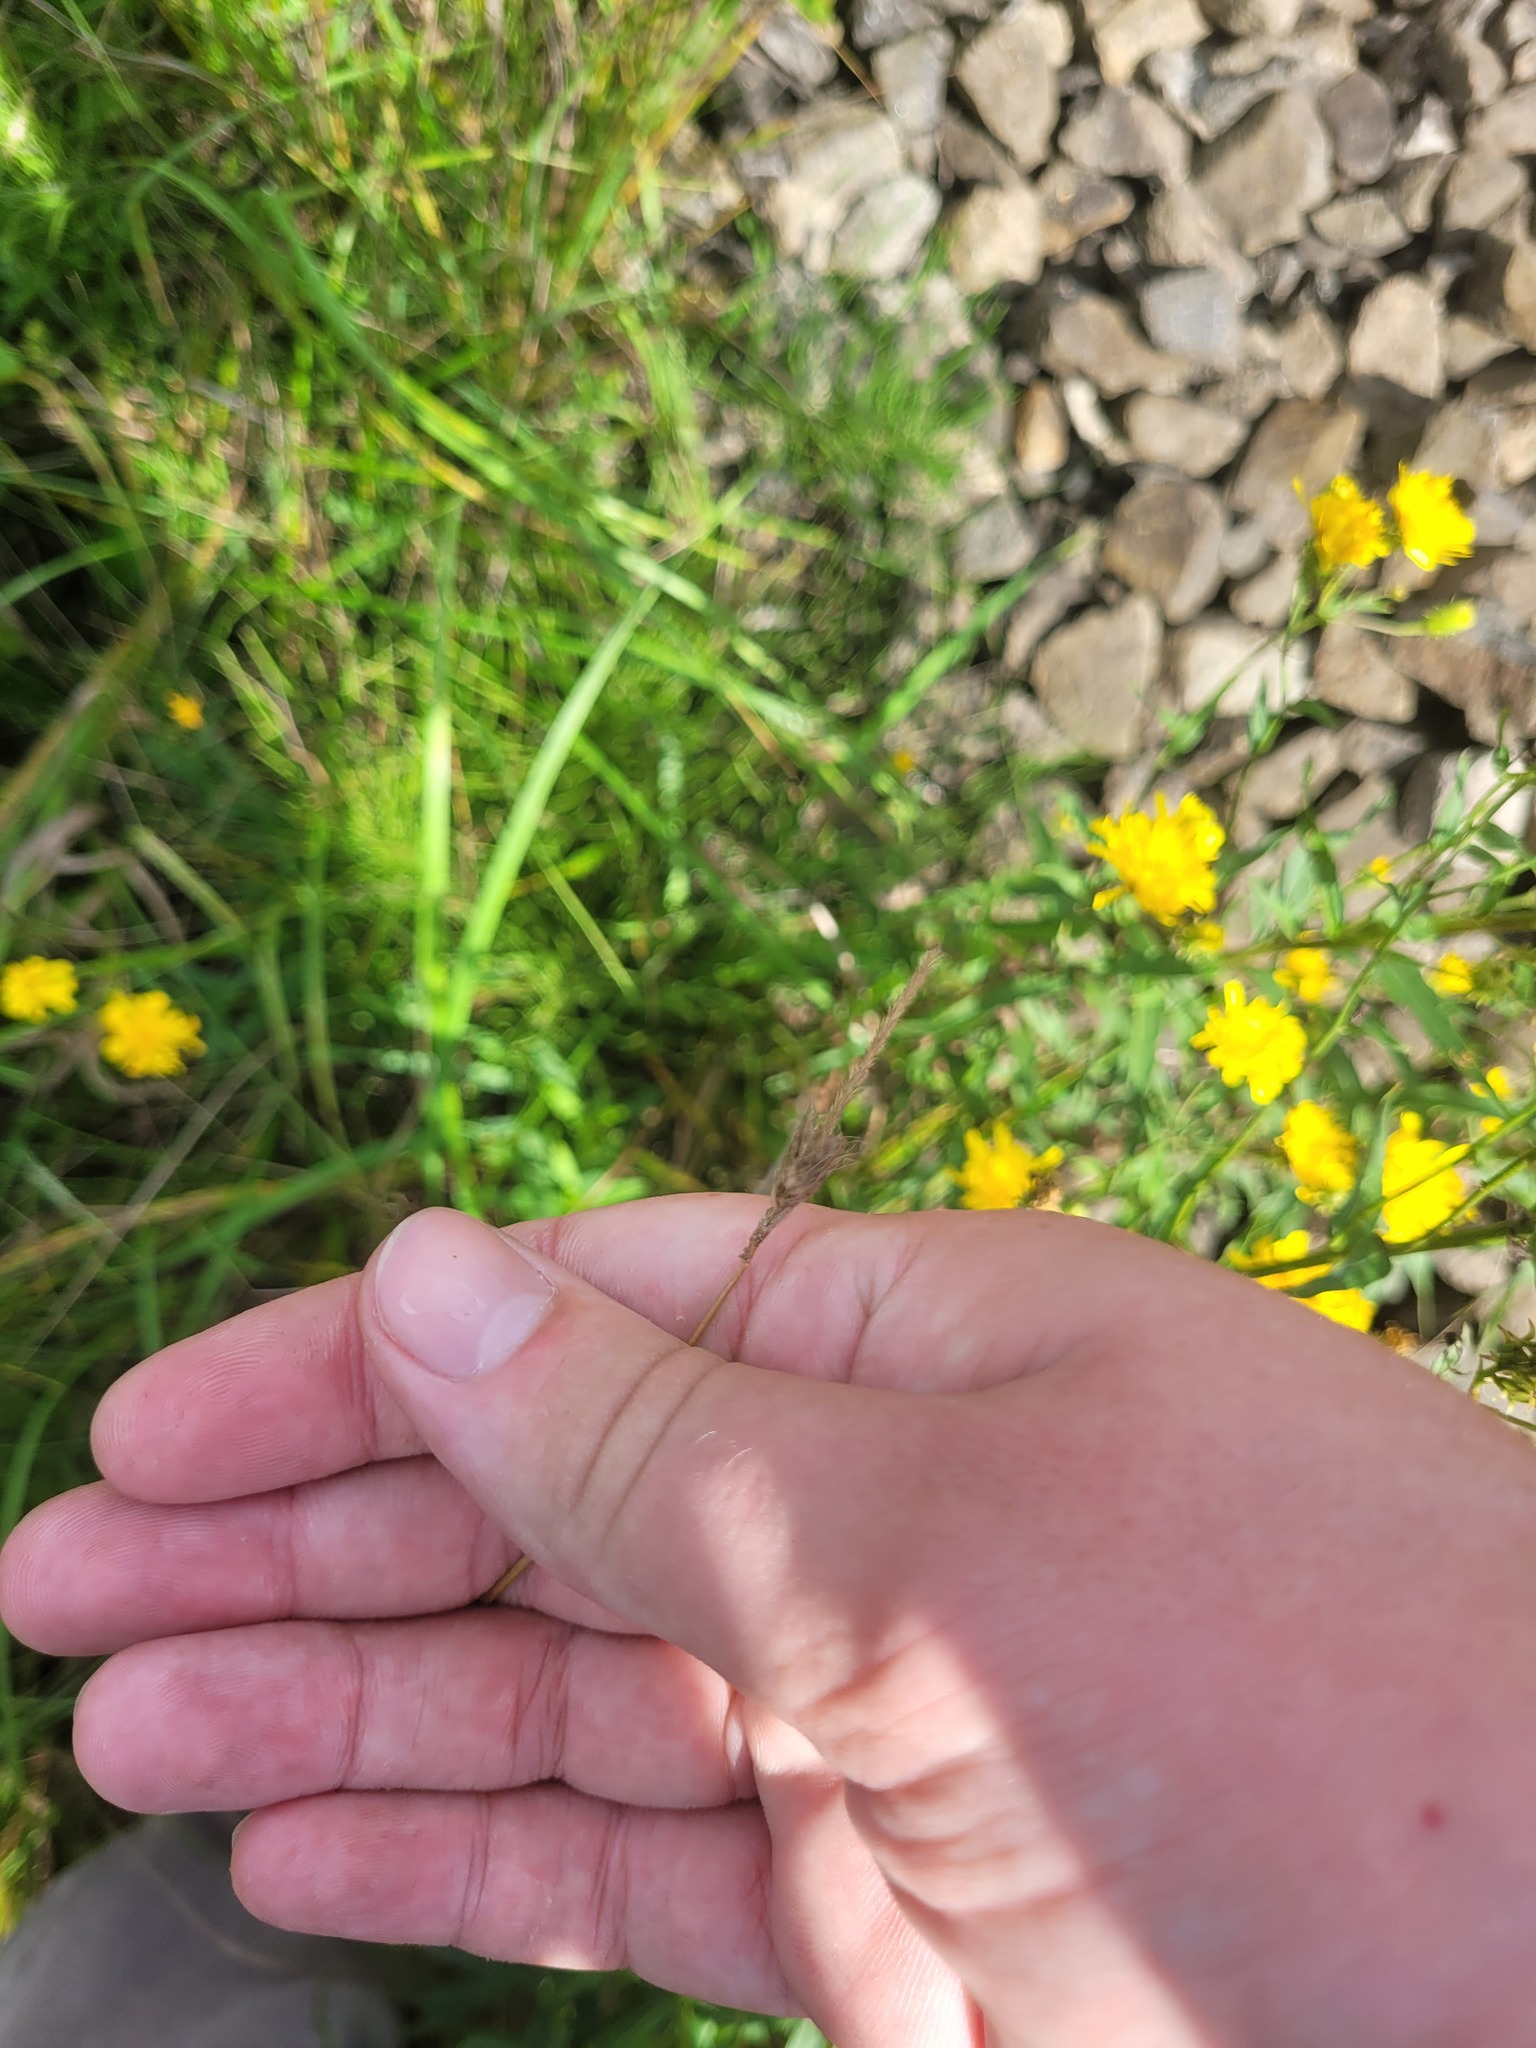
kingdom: Plantae
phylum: Tracheophyta
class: Liliopsida
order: Poales
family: Poaceae
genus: Alopecurus
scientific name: Alopecurus pratensis
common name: Meadow foxtail
